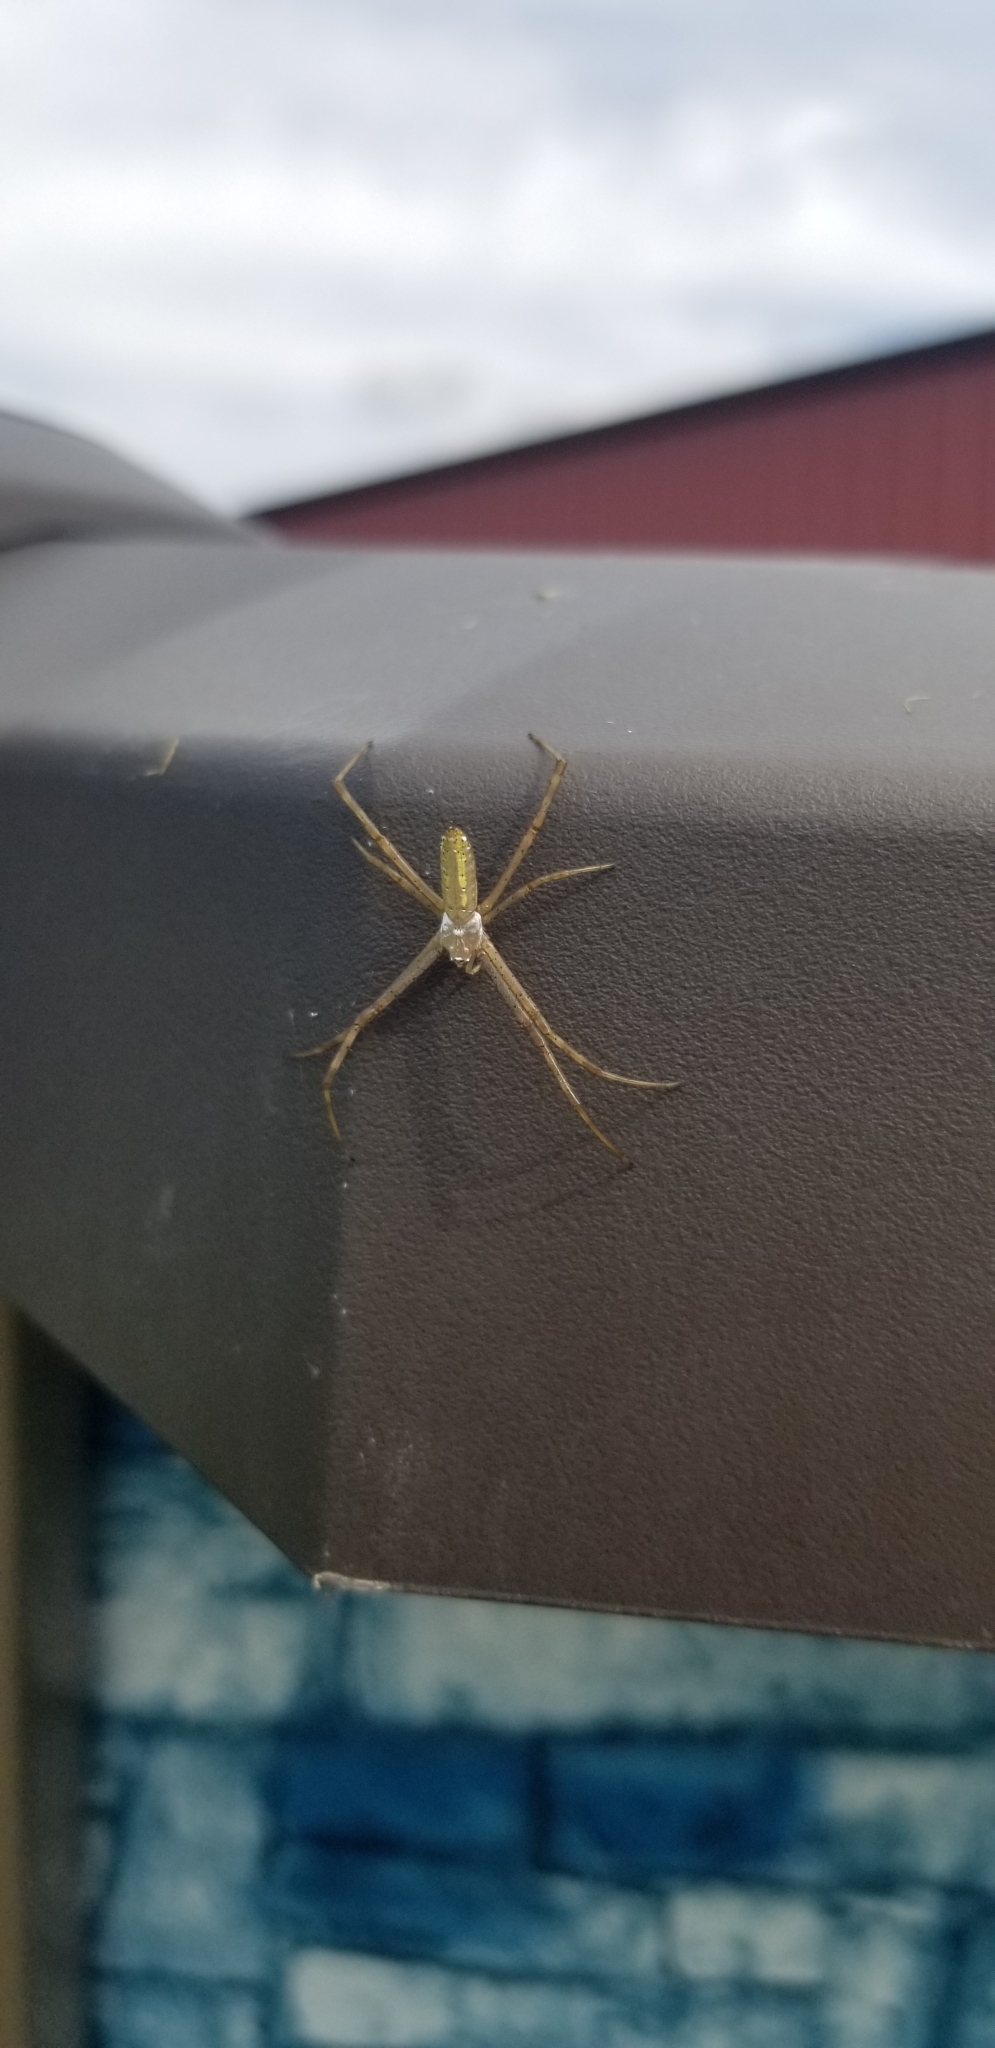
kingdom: Animalia
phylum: Arthropoda
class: Arachnida
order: Araneae
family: Araneidae
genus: Argiope
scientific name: Argiope trifasciata
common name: Banded garden spider
